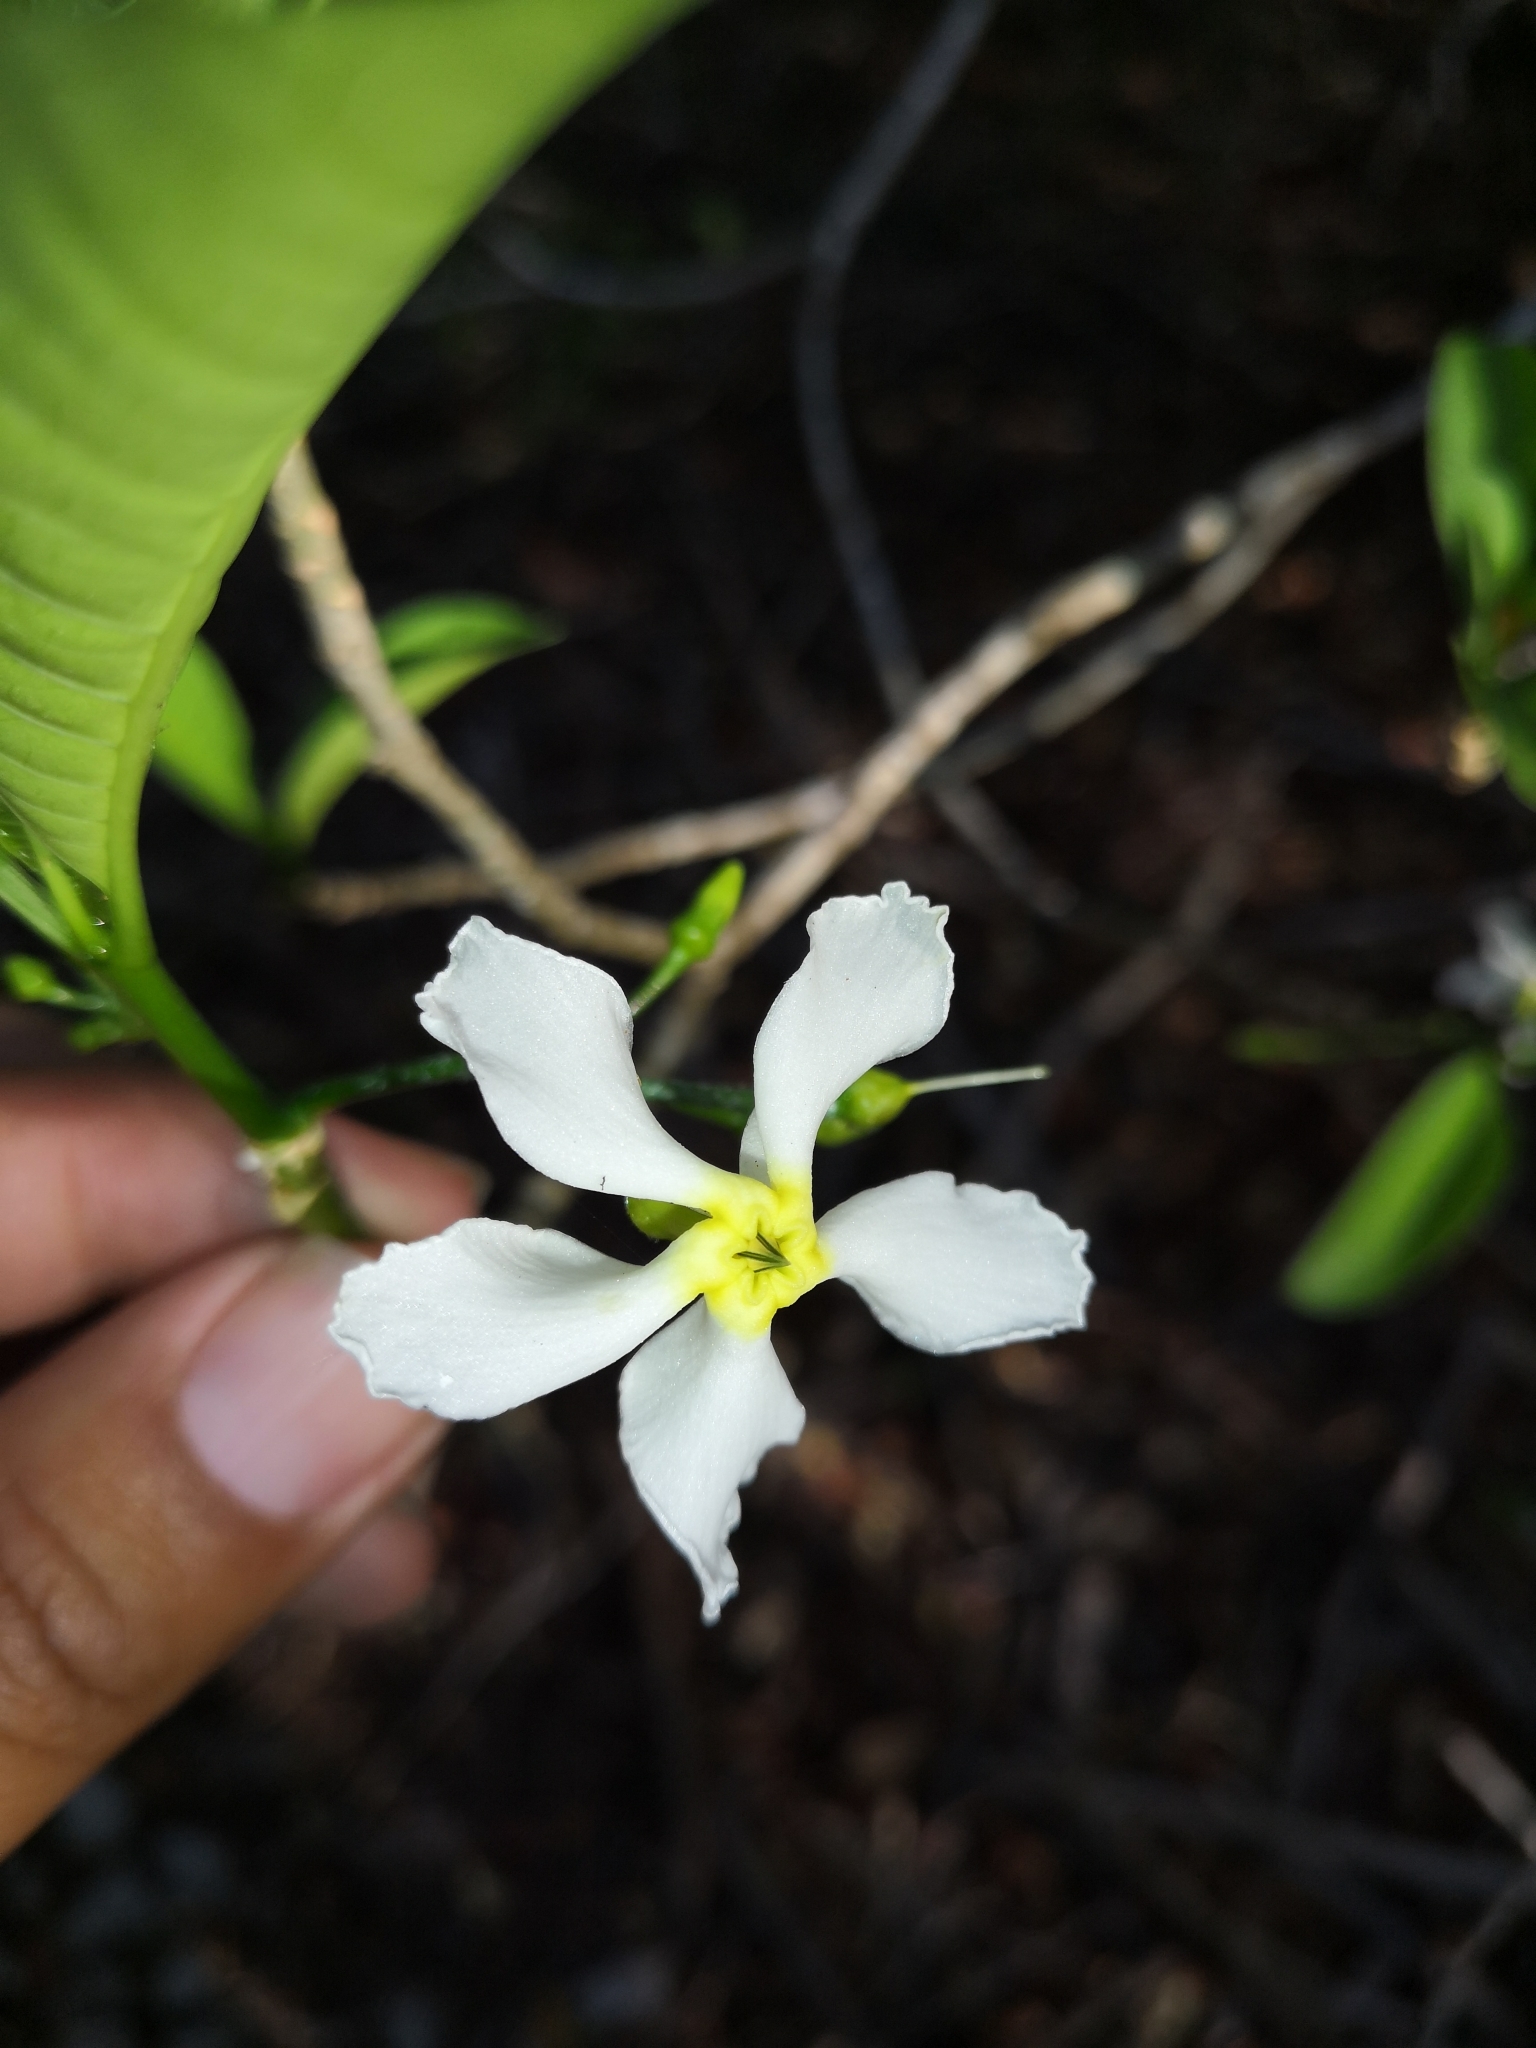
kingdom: Plantae
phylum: Tracheophyta
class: Magnoliopsida
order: Gentianales
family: Apocynaceae
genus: Tabernaemontana
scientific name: Tabernaemontana amygdalifolia
